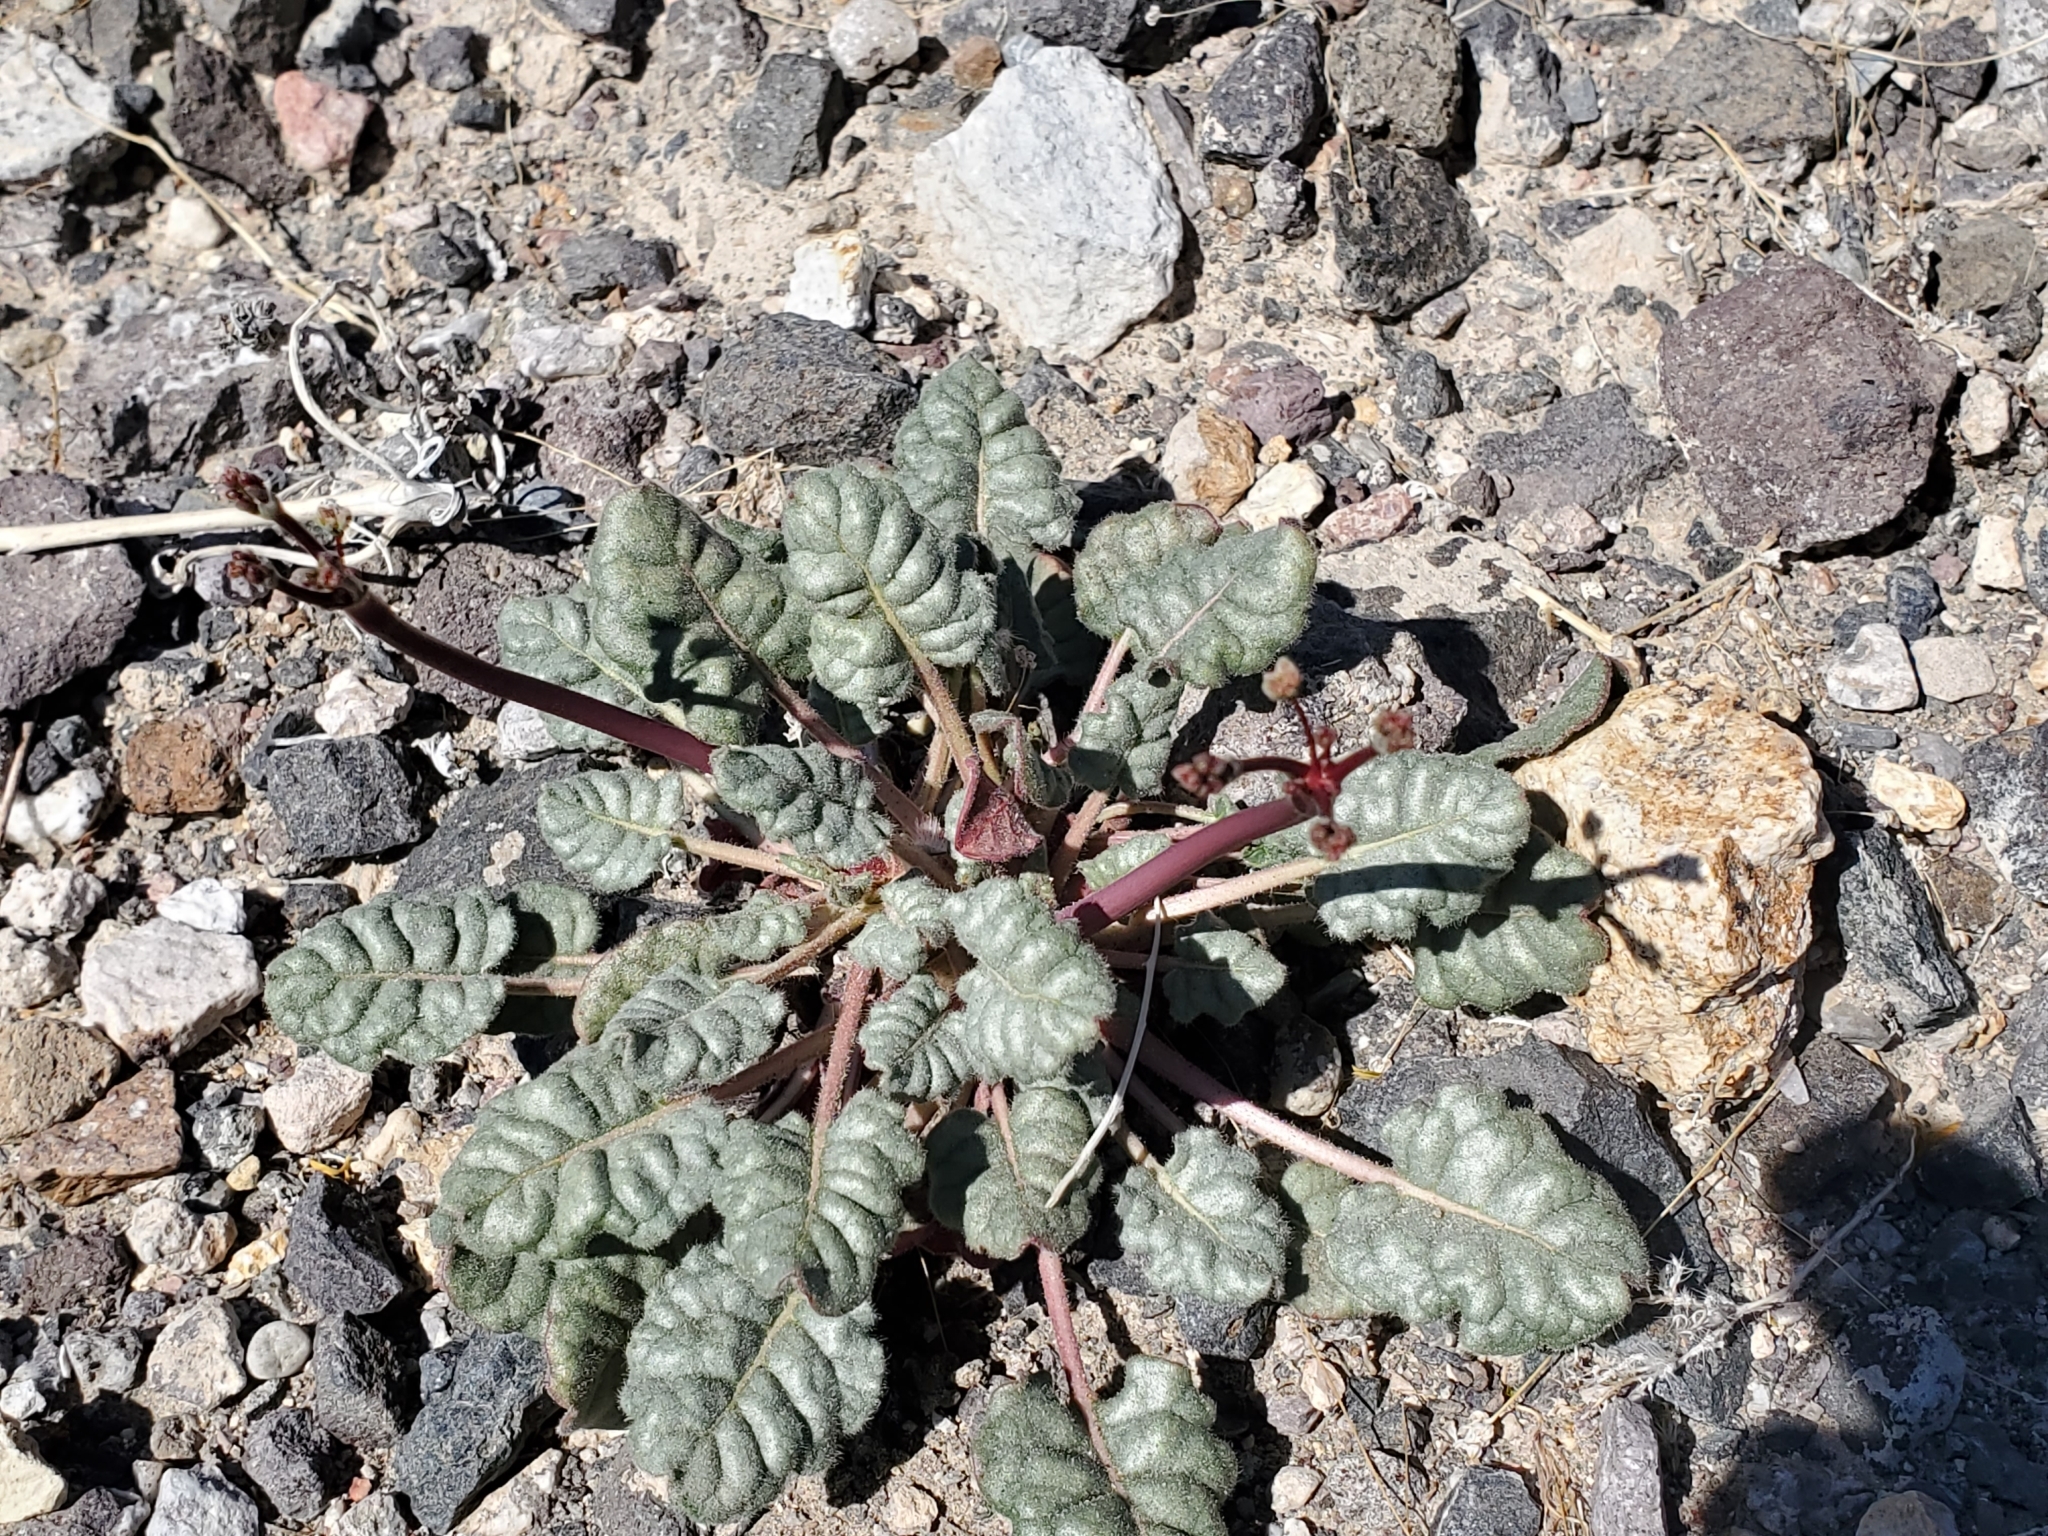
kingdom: Plantae
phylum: Tracheophyta
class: Magnoliopsida
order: Caryophyllales
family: Polygonaceae
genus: Eriogonum
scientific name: Eriogonum inflatum
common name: Desert trumpet
